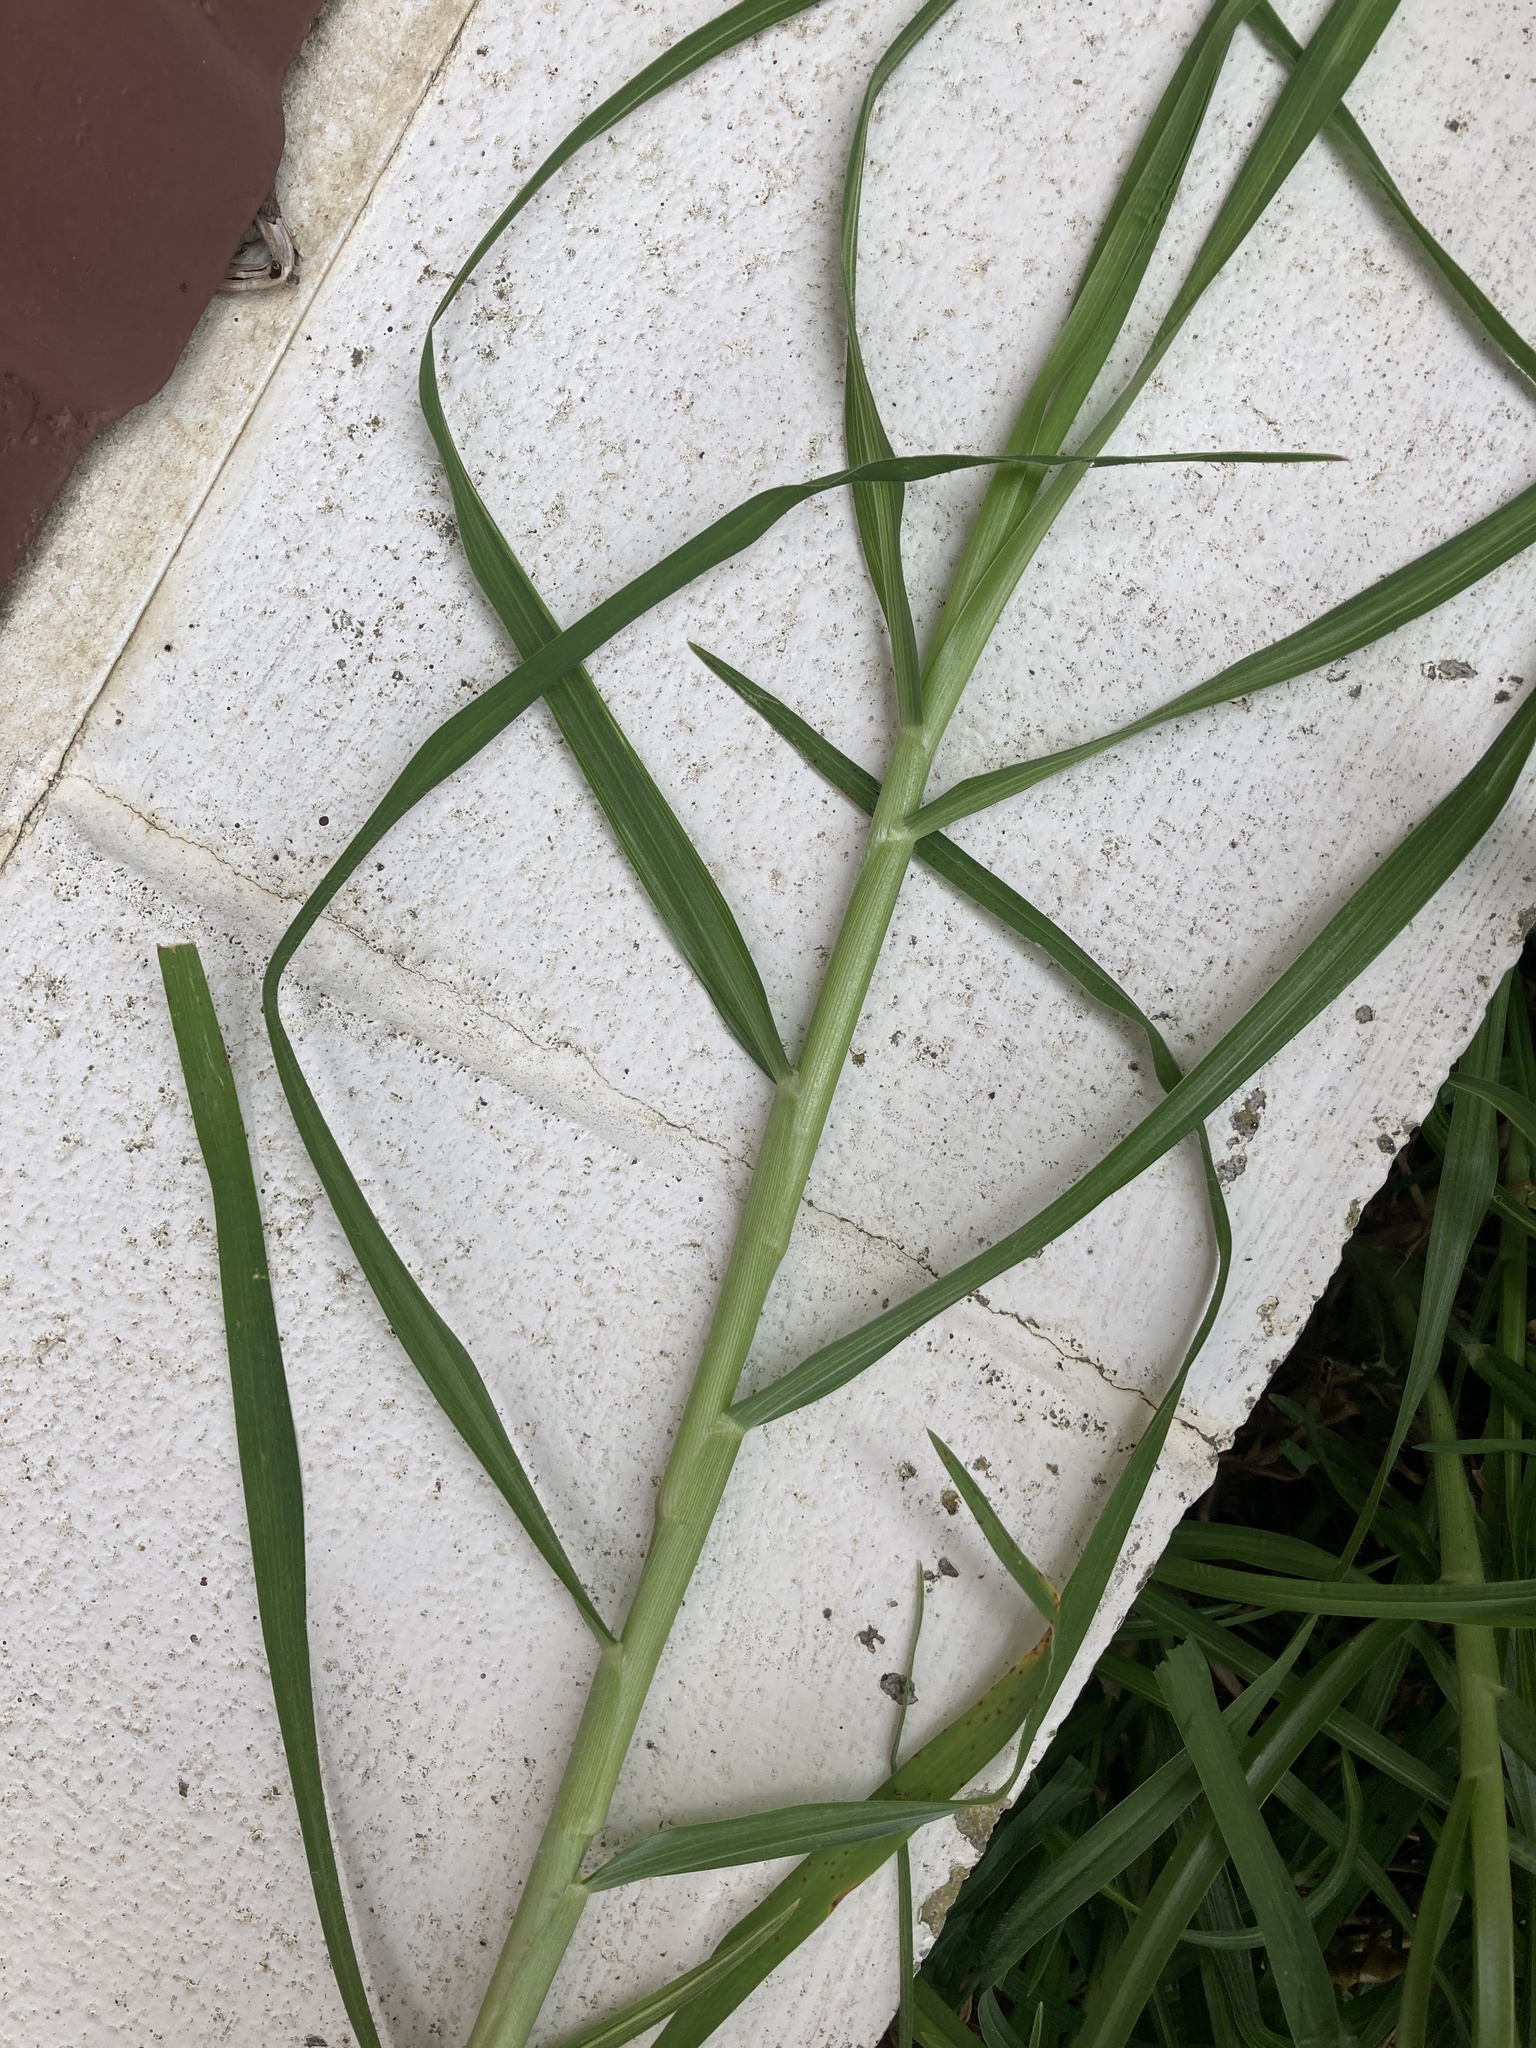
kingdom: Plantae
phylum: Tracheophyta
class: Liliopsida
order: Poales
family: Poaceae
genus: Cenchrus
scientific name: Cenchrus clandestinus
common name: Kikuyugrass
